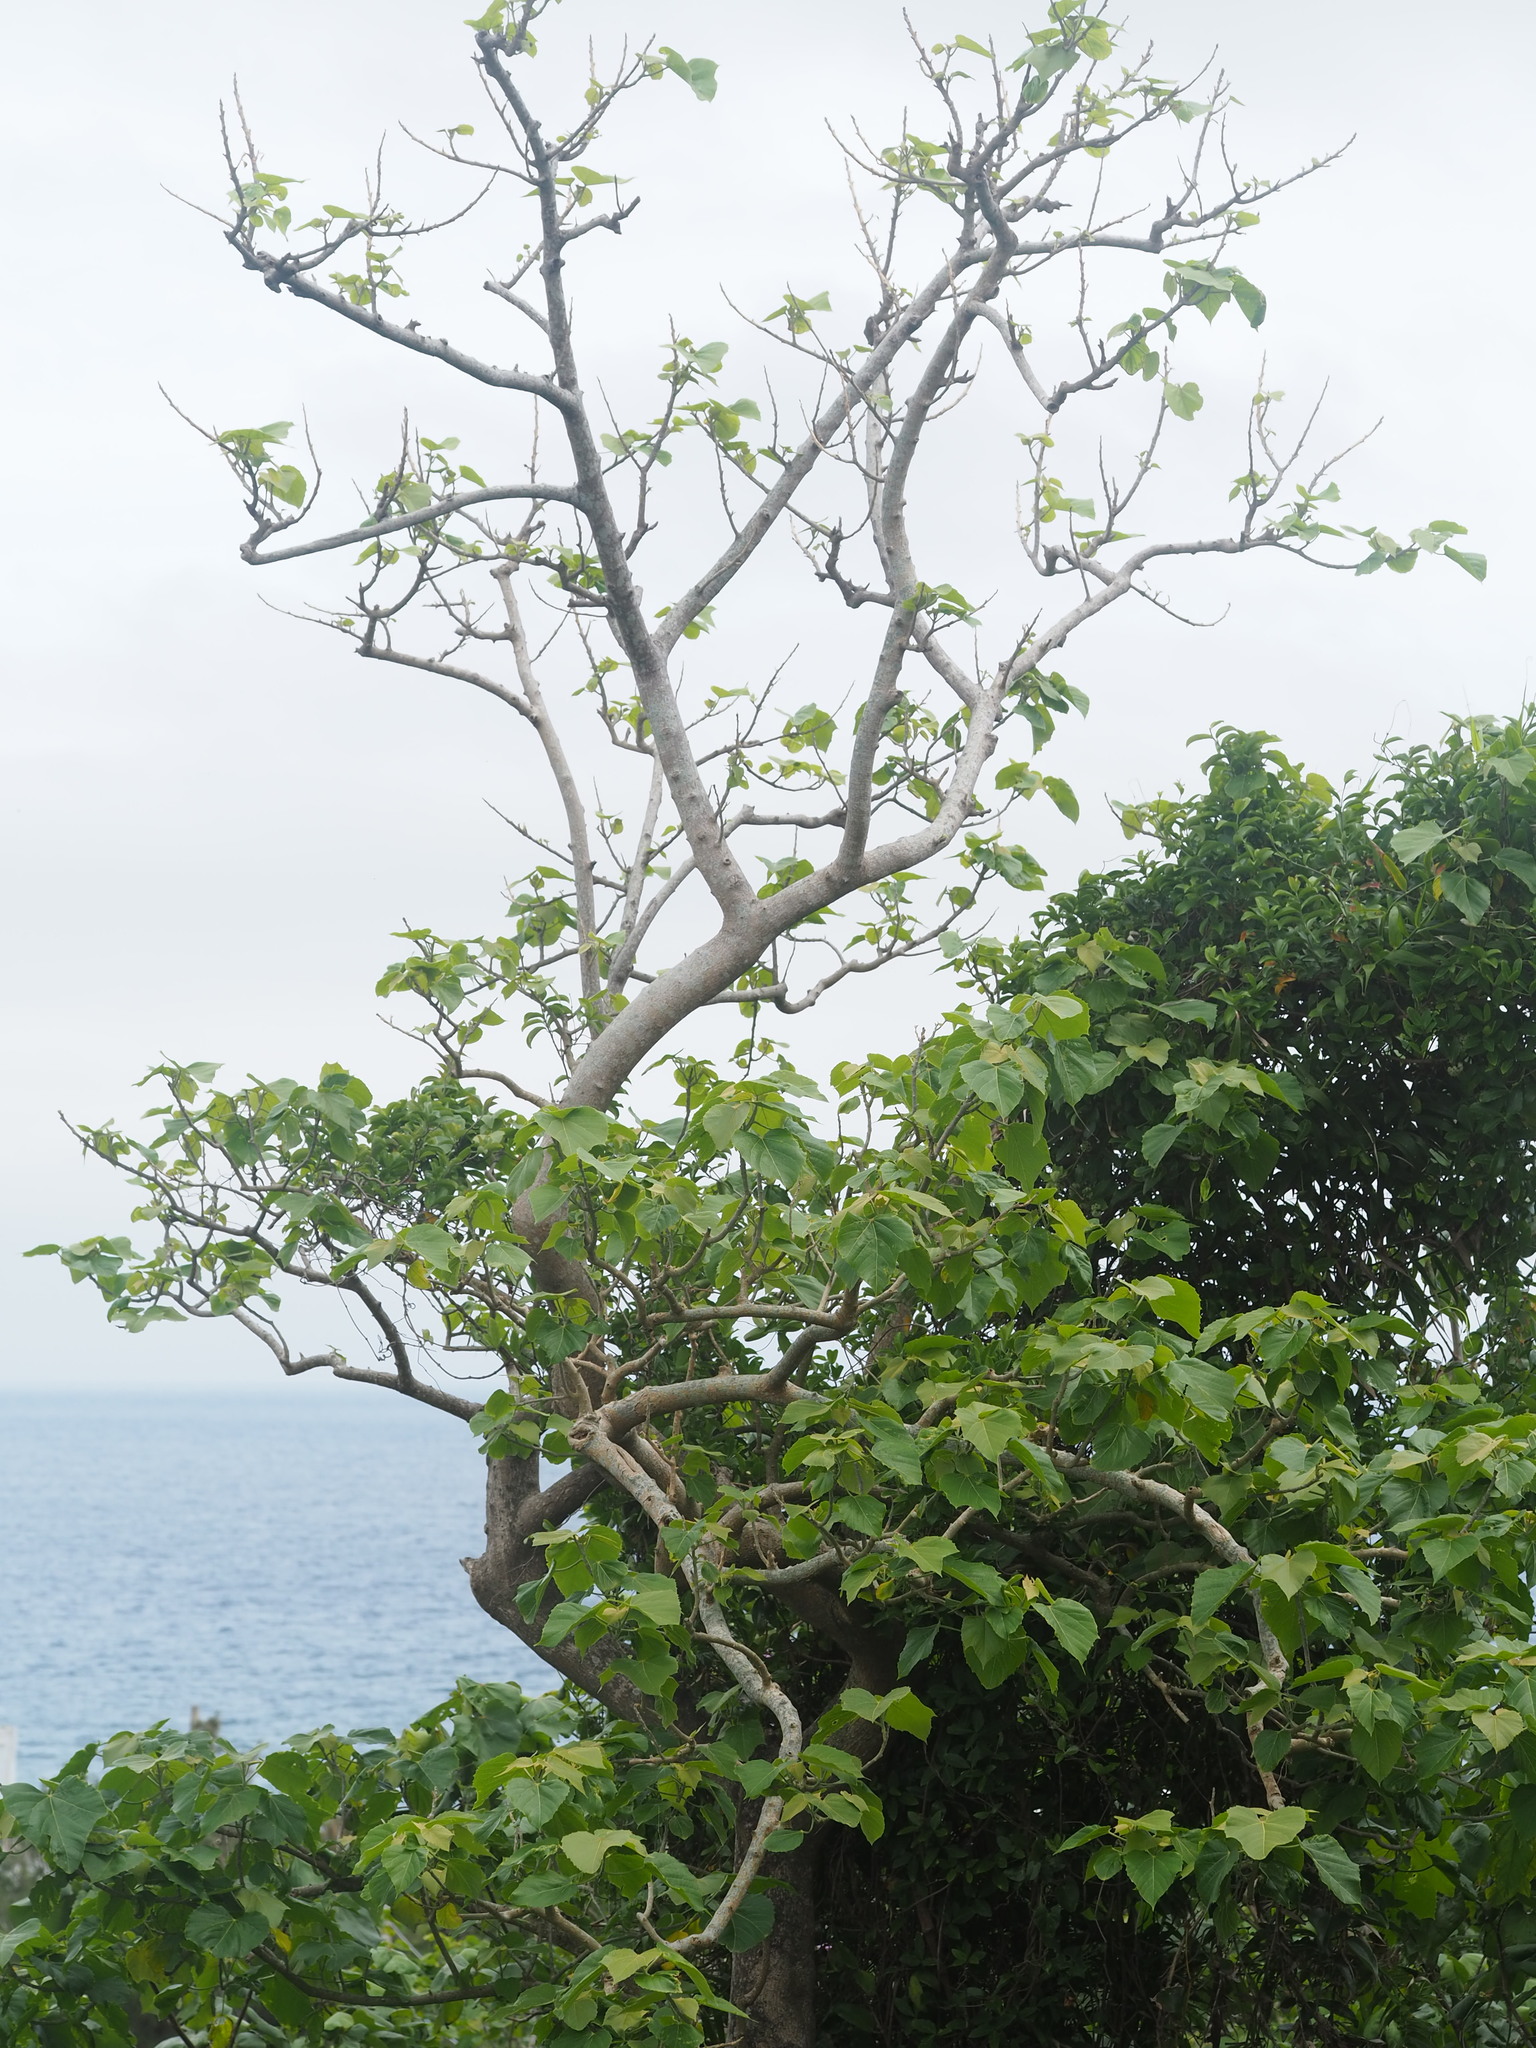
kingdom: Plantae
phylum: Tracheophyta
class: Magnoliopsida
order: Malpighiales
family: Euphorbiaceae
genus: Melanolepis
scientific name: Melanolepis multiglandulosa
